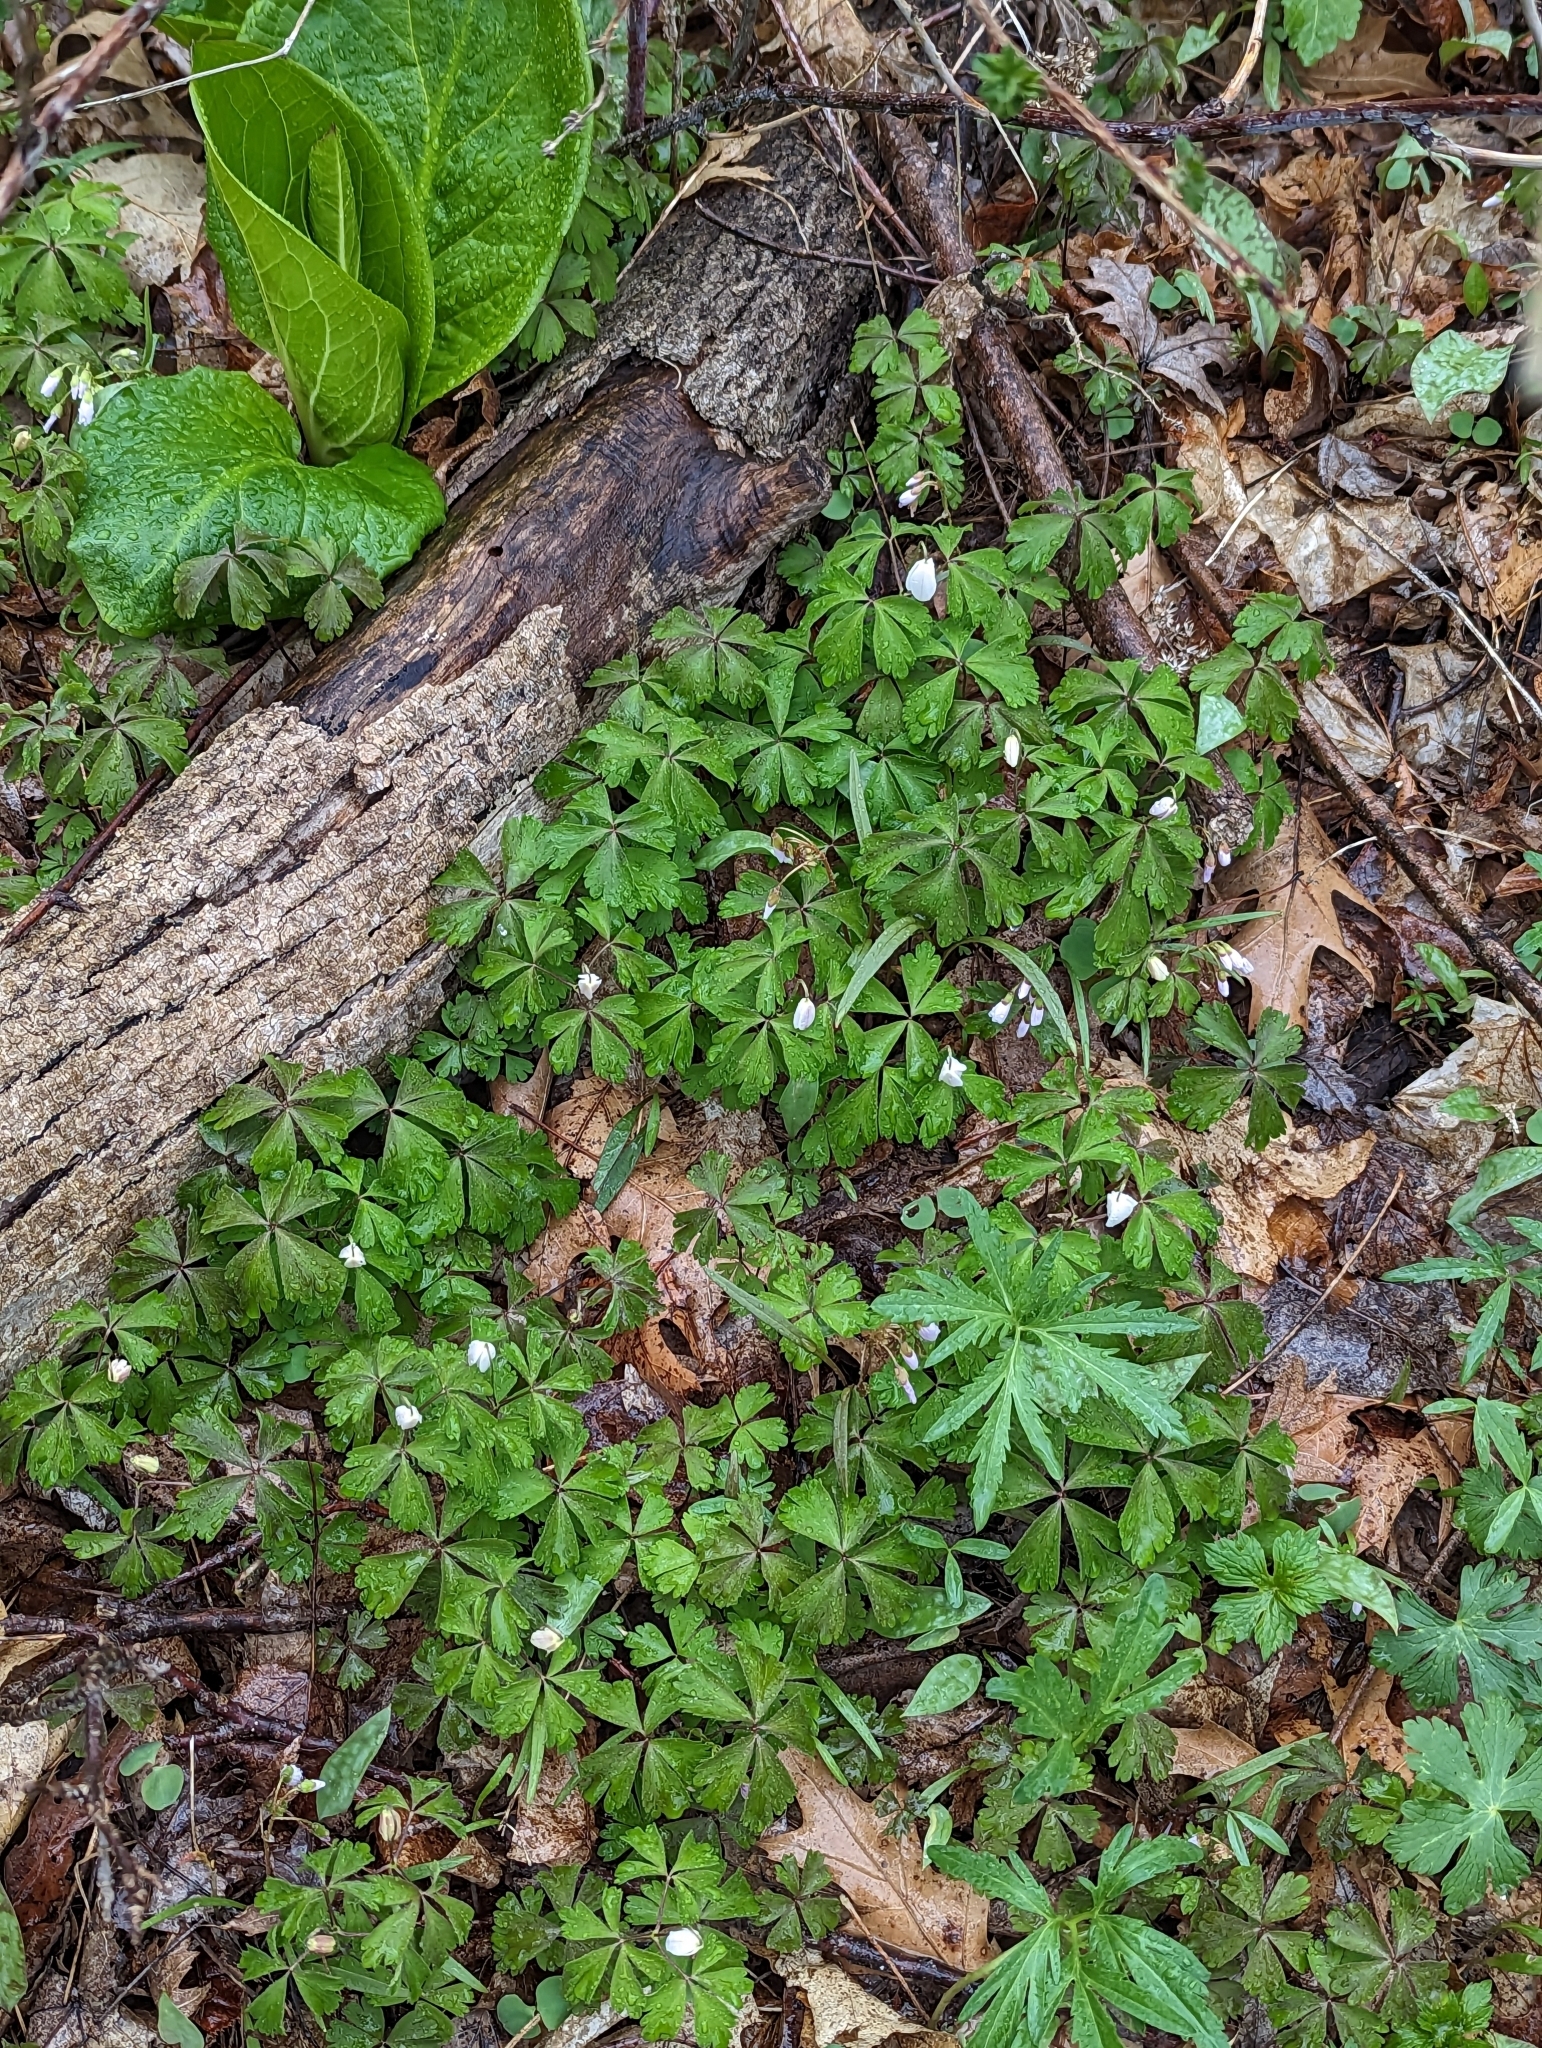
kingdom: Plantae
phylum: Tracheophyta
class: Magnoliopsida
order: Ranunculales
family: Ranunculaceae
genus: Anemone
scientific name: Anemone quinquefolia
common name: Wood anemone
